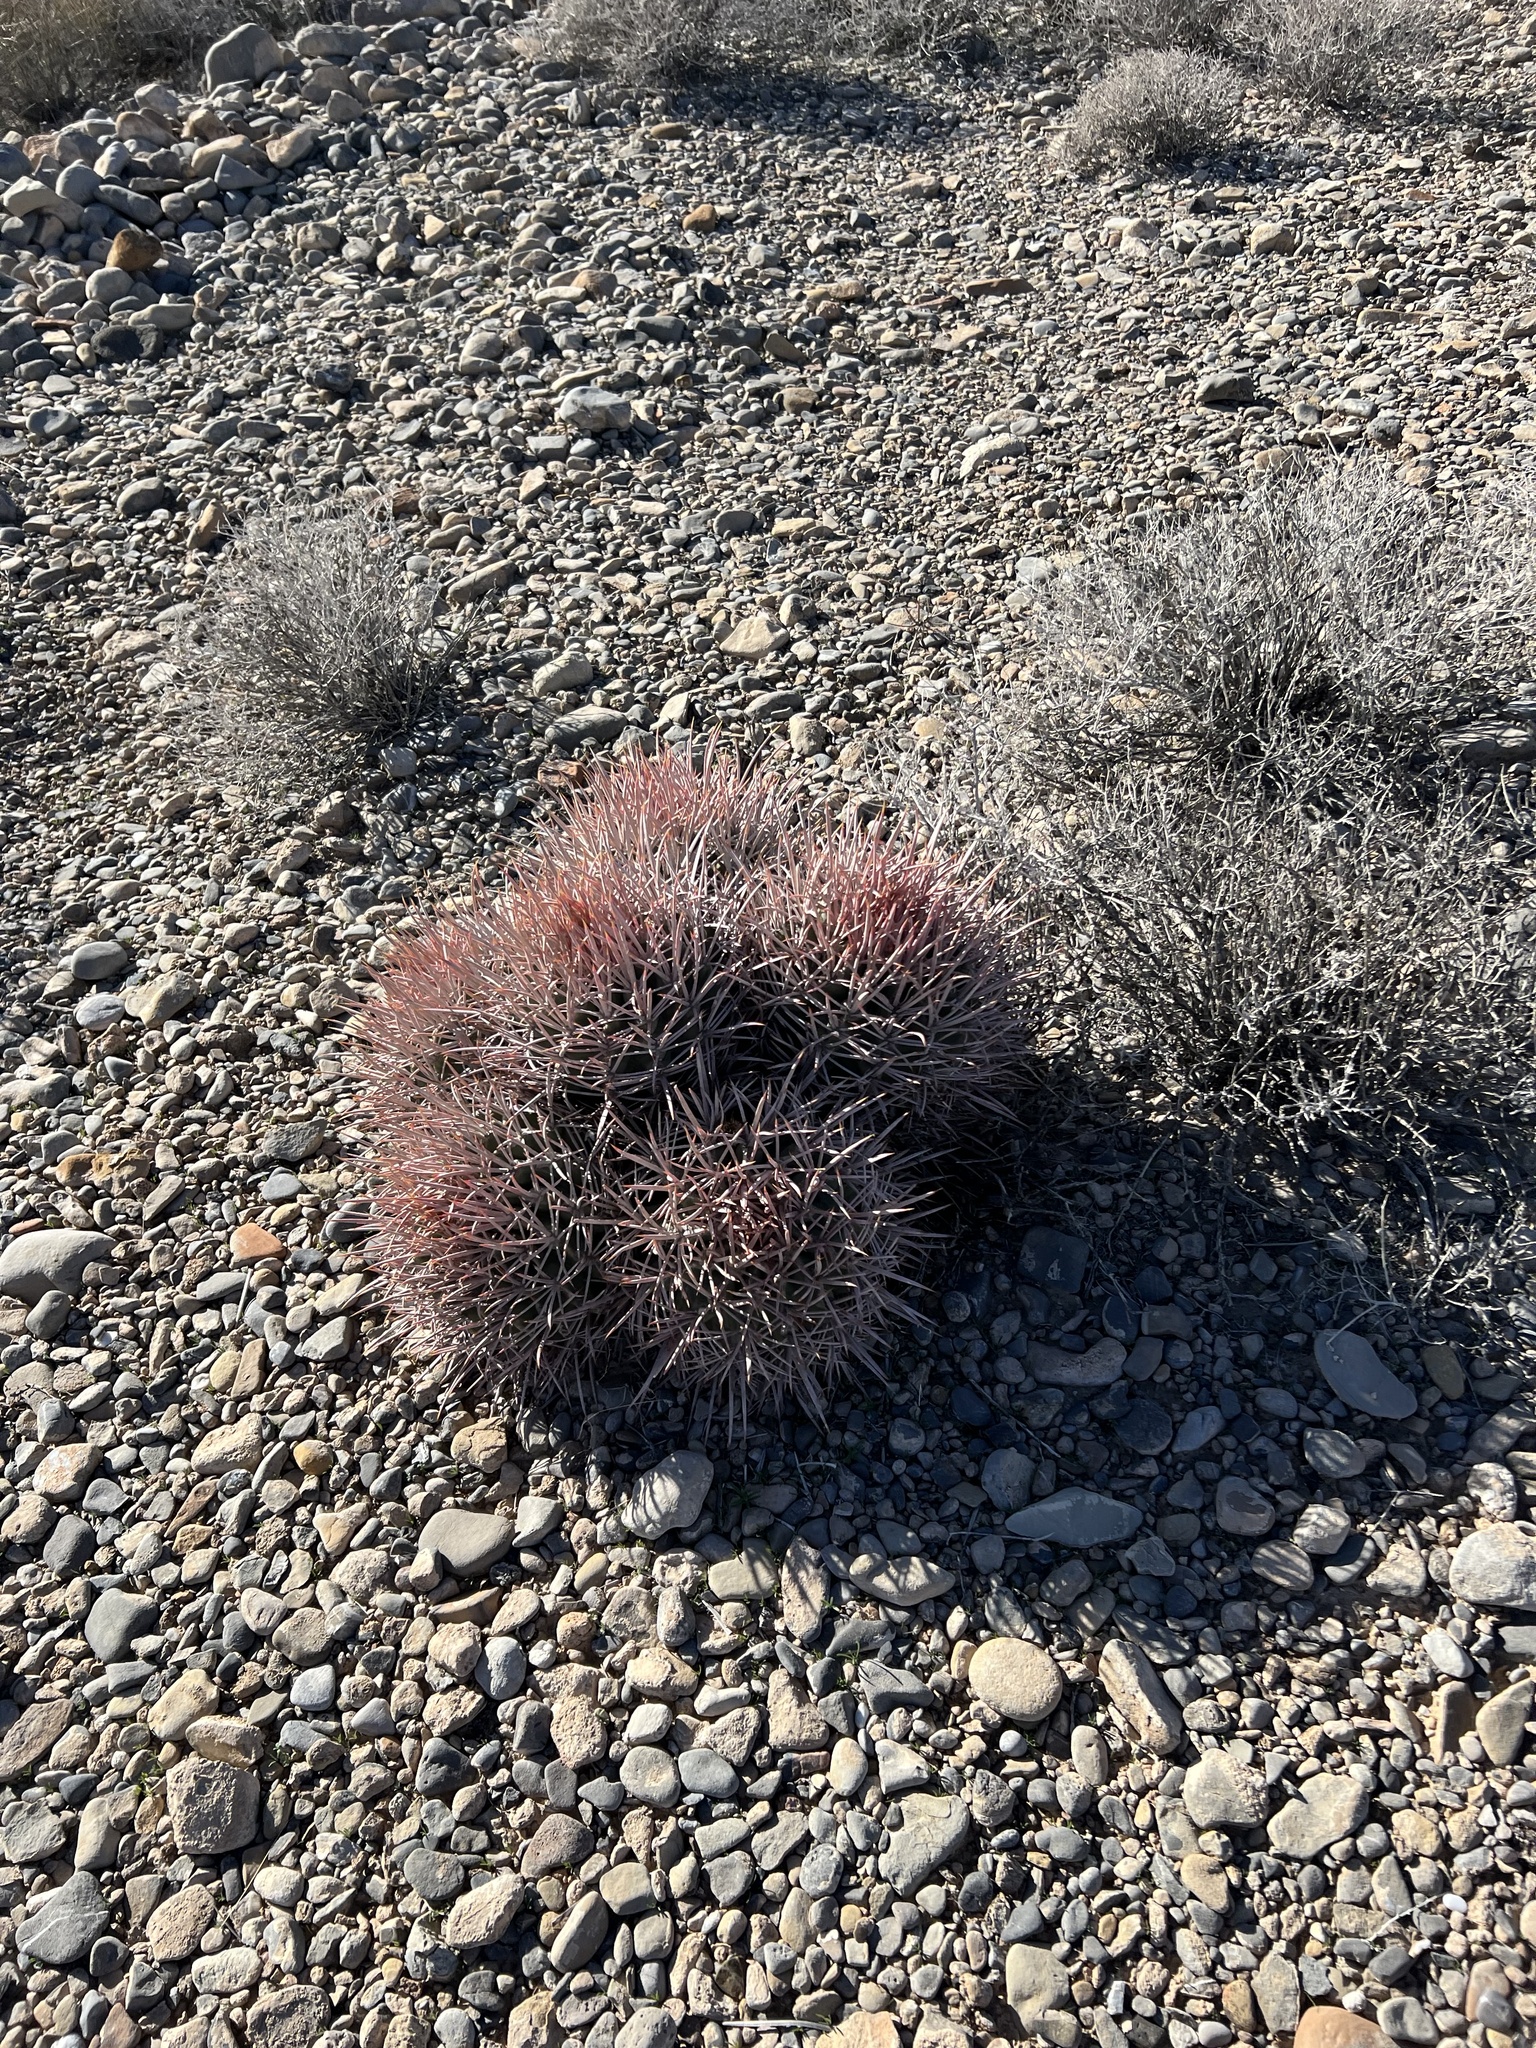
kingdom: Plantae
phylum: Tracheophyta
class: Magnoliopsida
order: Caryophyllales
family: Cactaceae
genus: Echinocactus
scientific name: Echinocactus polycephalus
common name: Cottontop cactus
